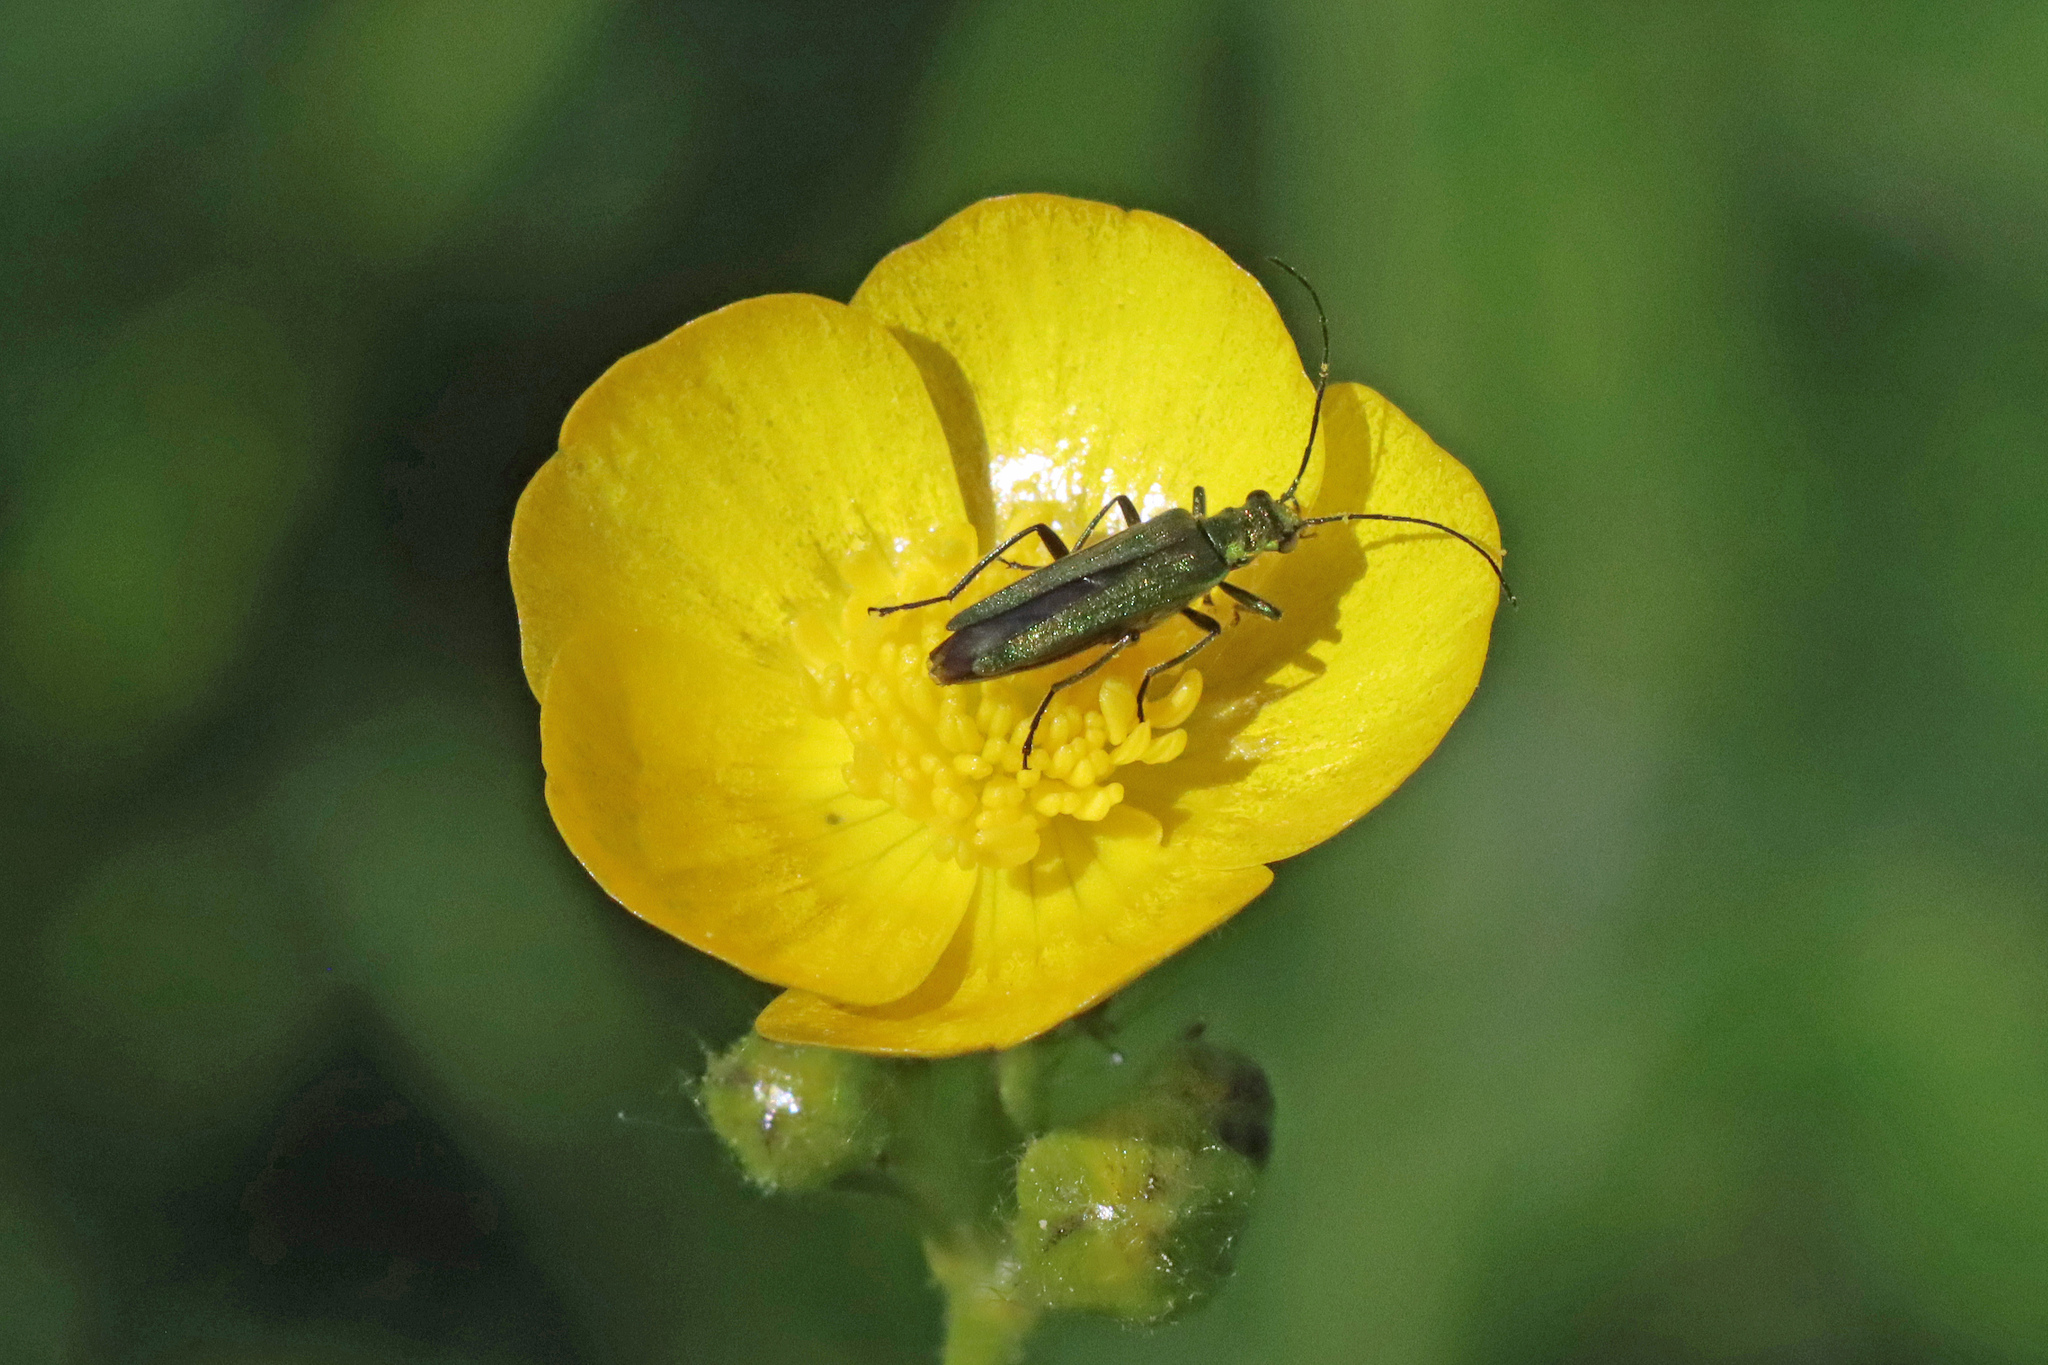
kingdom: Animalia
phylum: Arthropoda
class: Insecta
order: Coleoptera
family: Oedemeridae
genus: Oedemera
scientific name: Oedemera nobilis
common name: Swollen-thighed beetle
